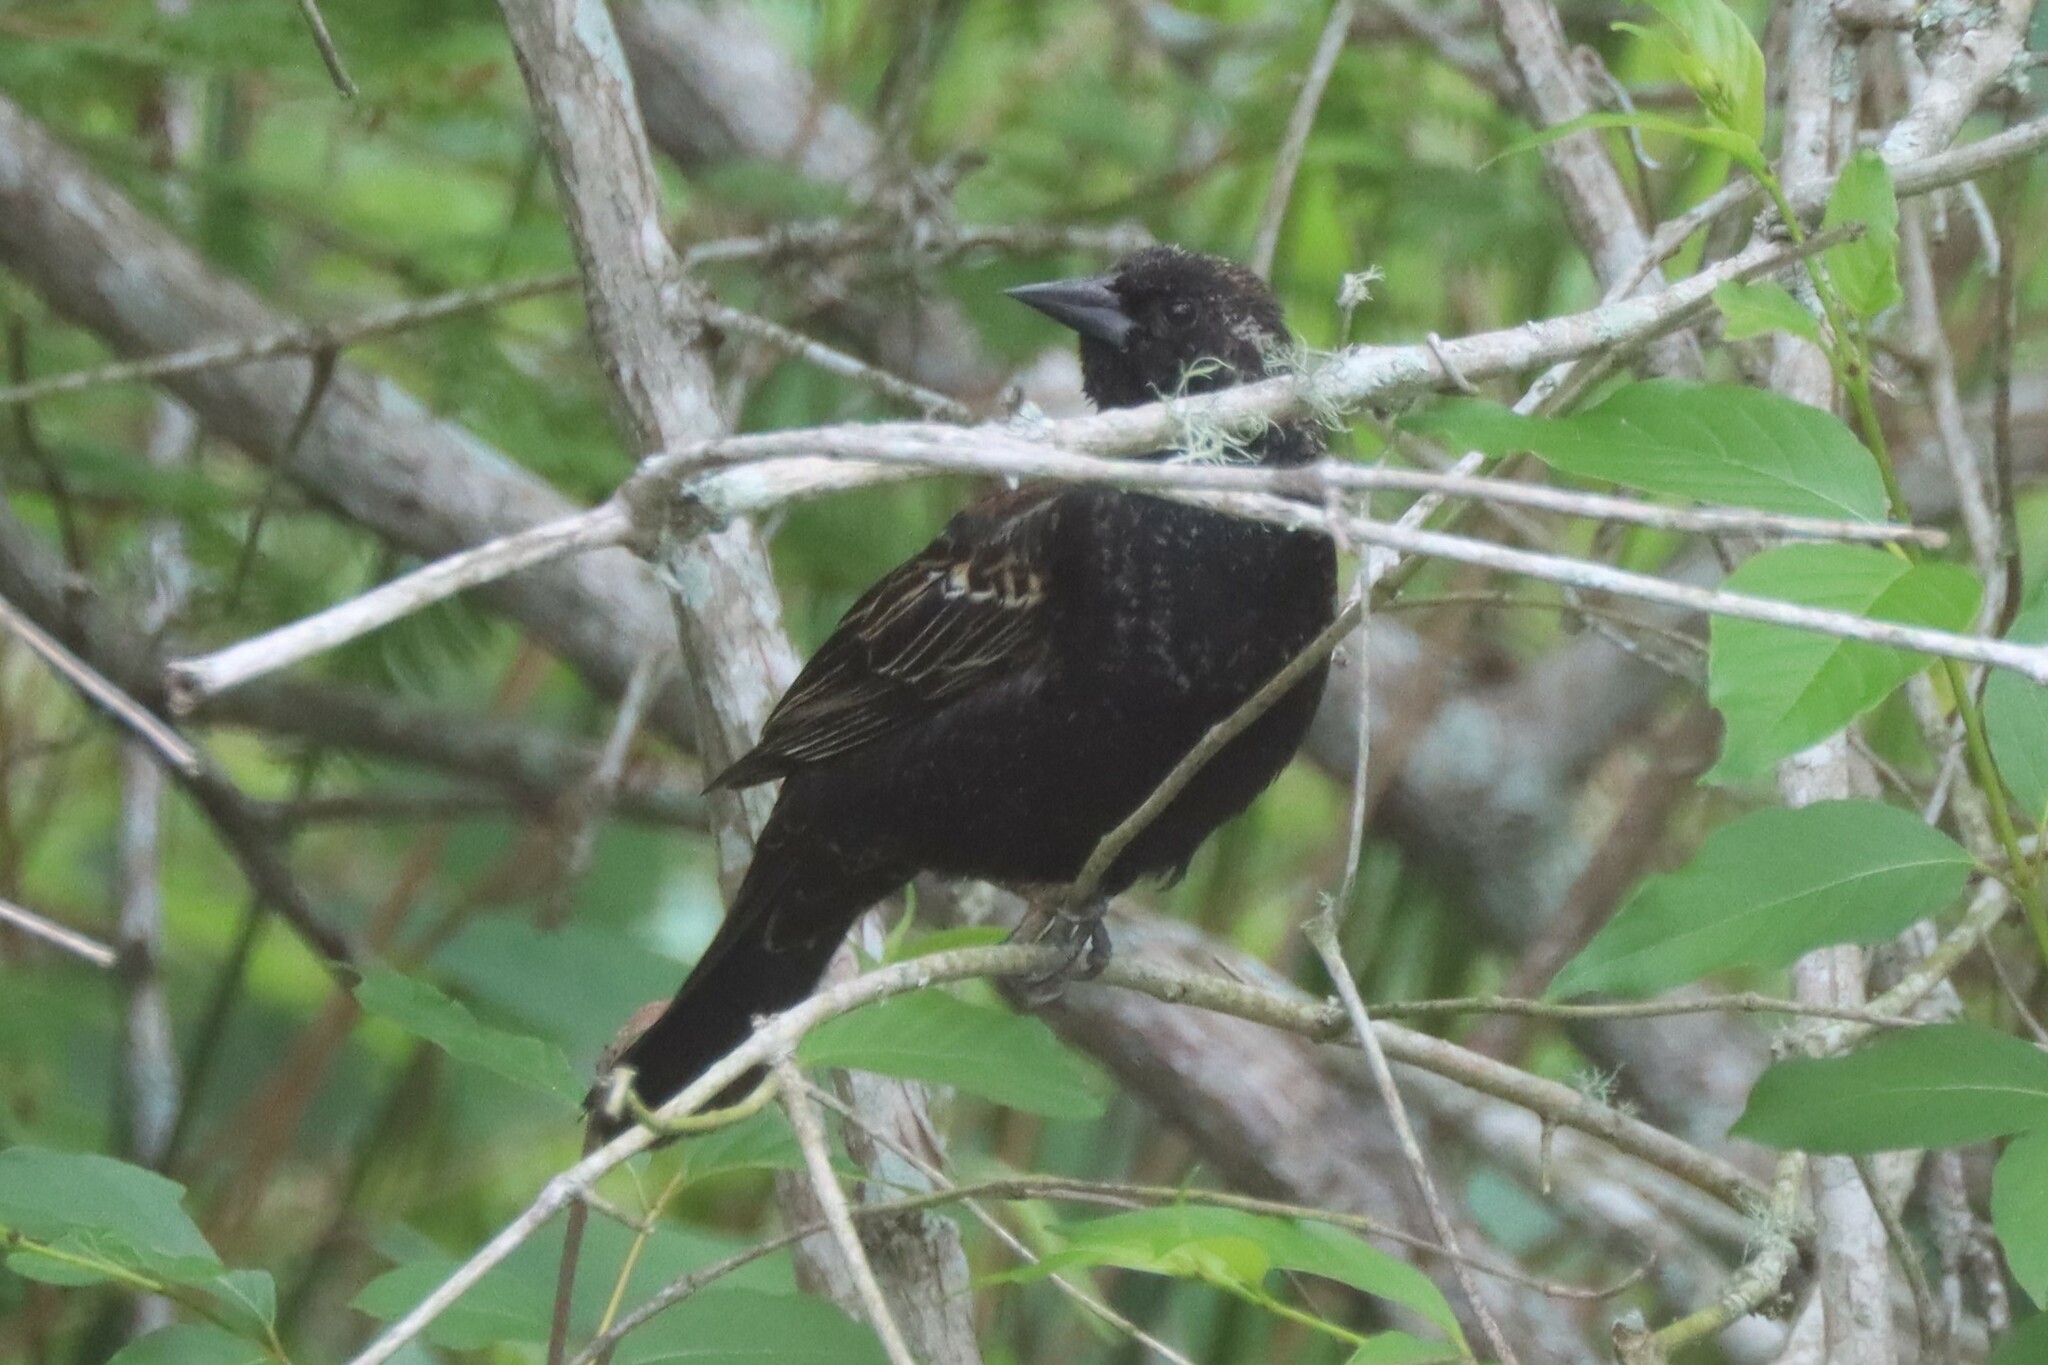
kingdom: Animalia
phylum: Chordata
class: Aves
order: Passeriformes
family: Icteridae
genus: Agelaius
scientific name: Agelaius phoeniceus
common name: Red-winged blackbird
